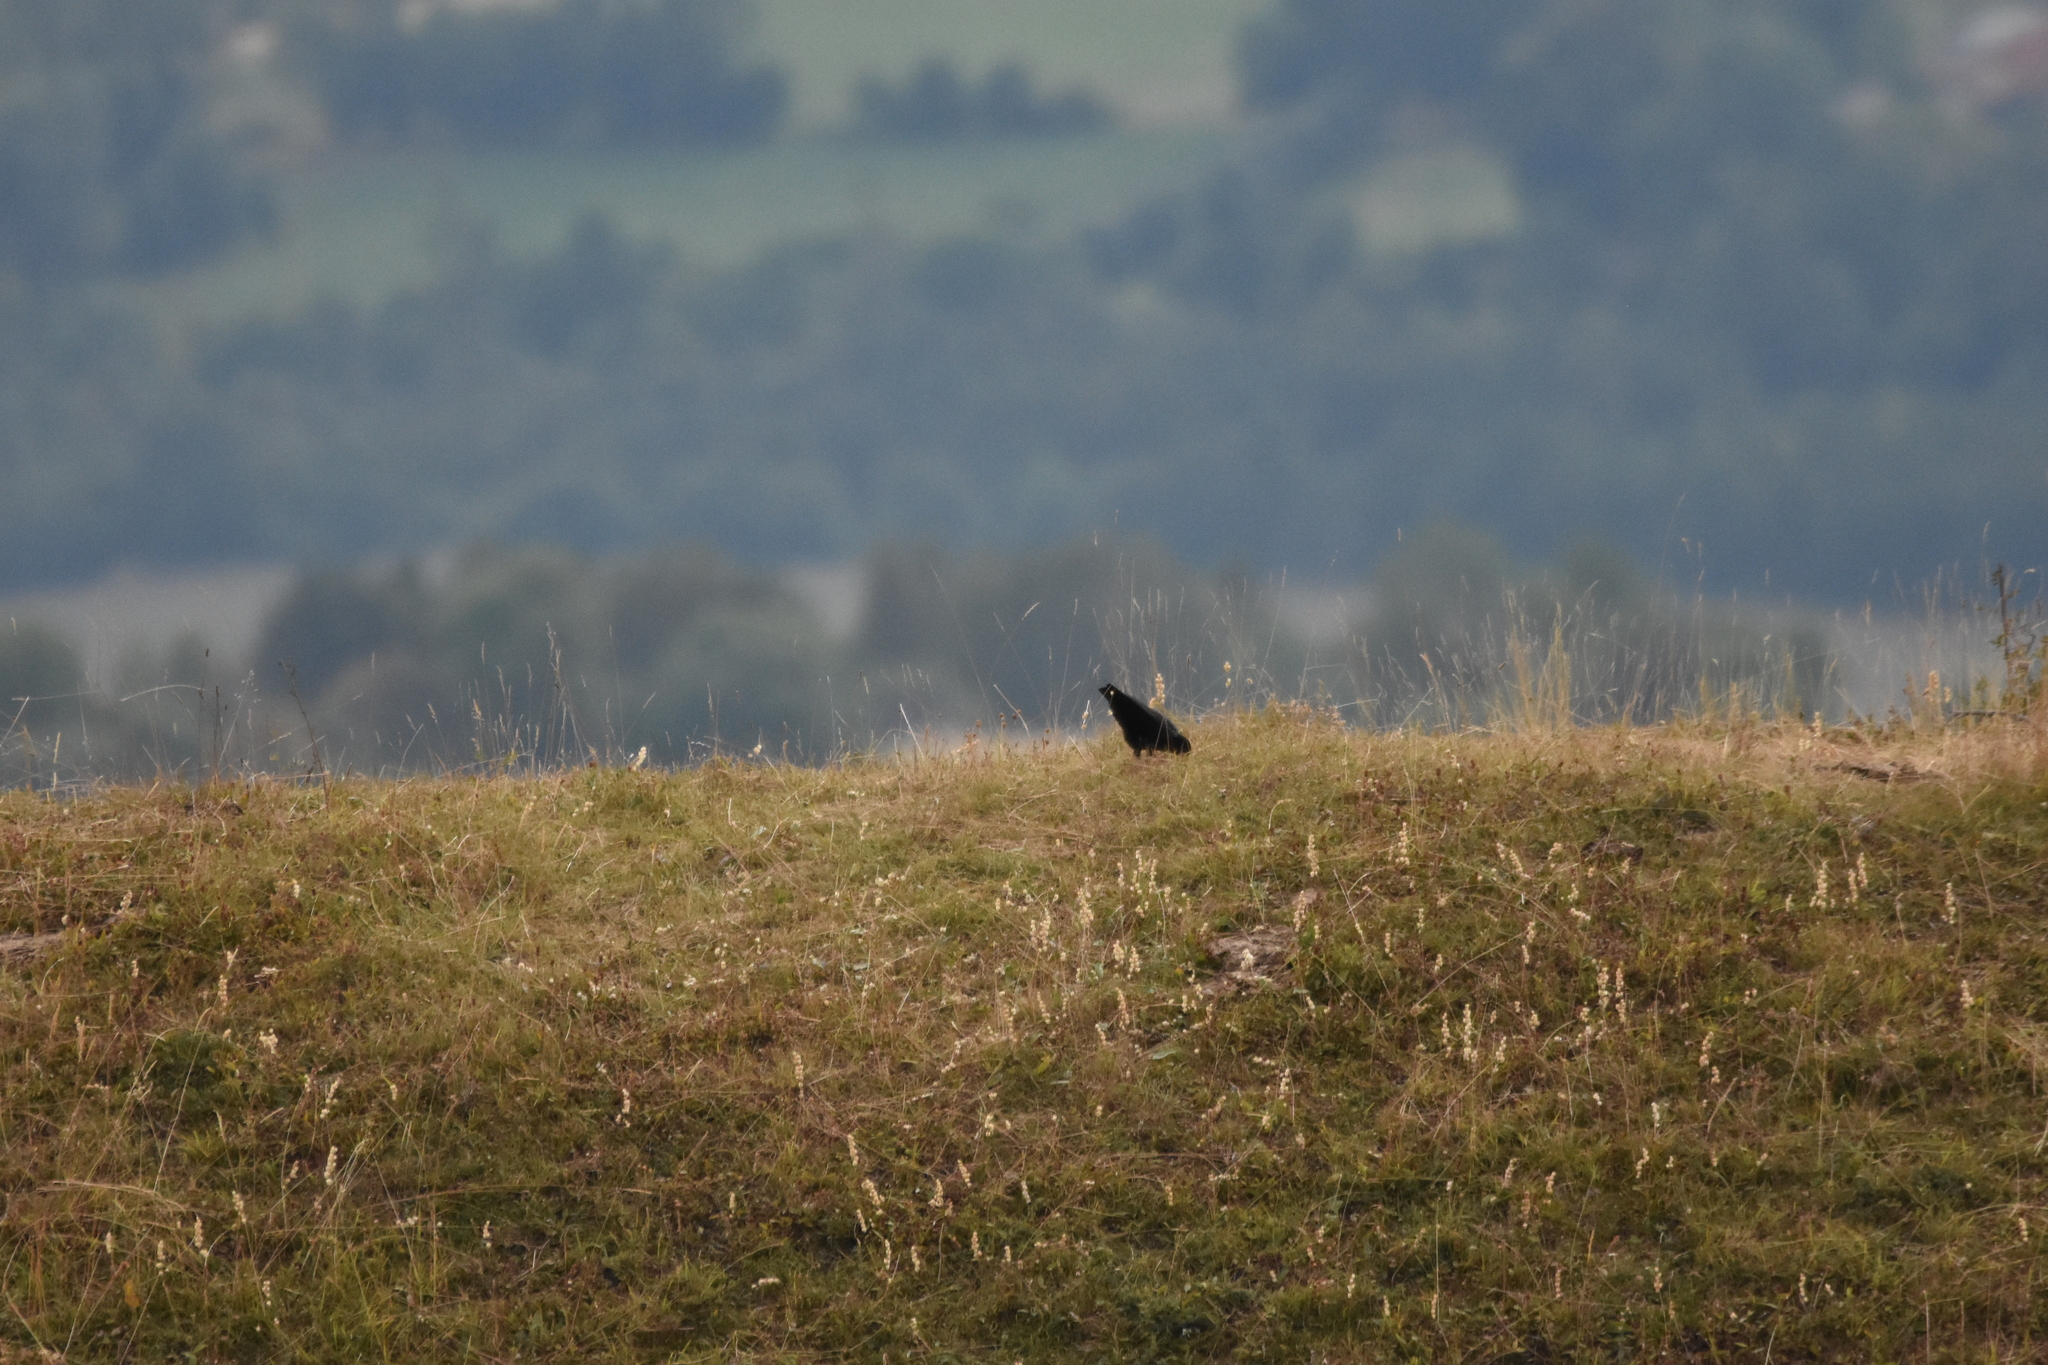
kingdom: Animalia
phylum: Chordata
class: Aves
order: Passeriformes
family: Corvidae
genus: Pyrrhocorax
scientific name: Pyrrhocorax pyrrhocorax
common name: Red-billed chough
